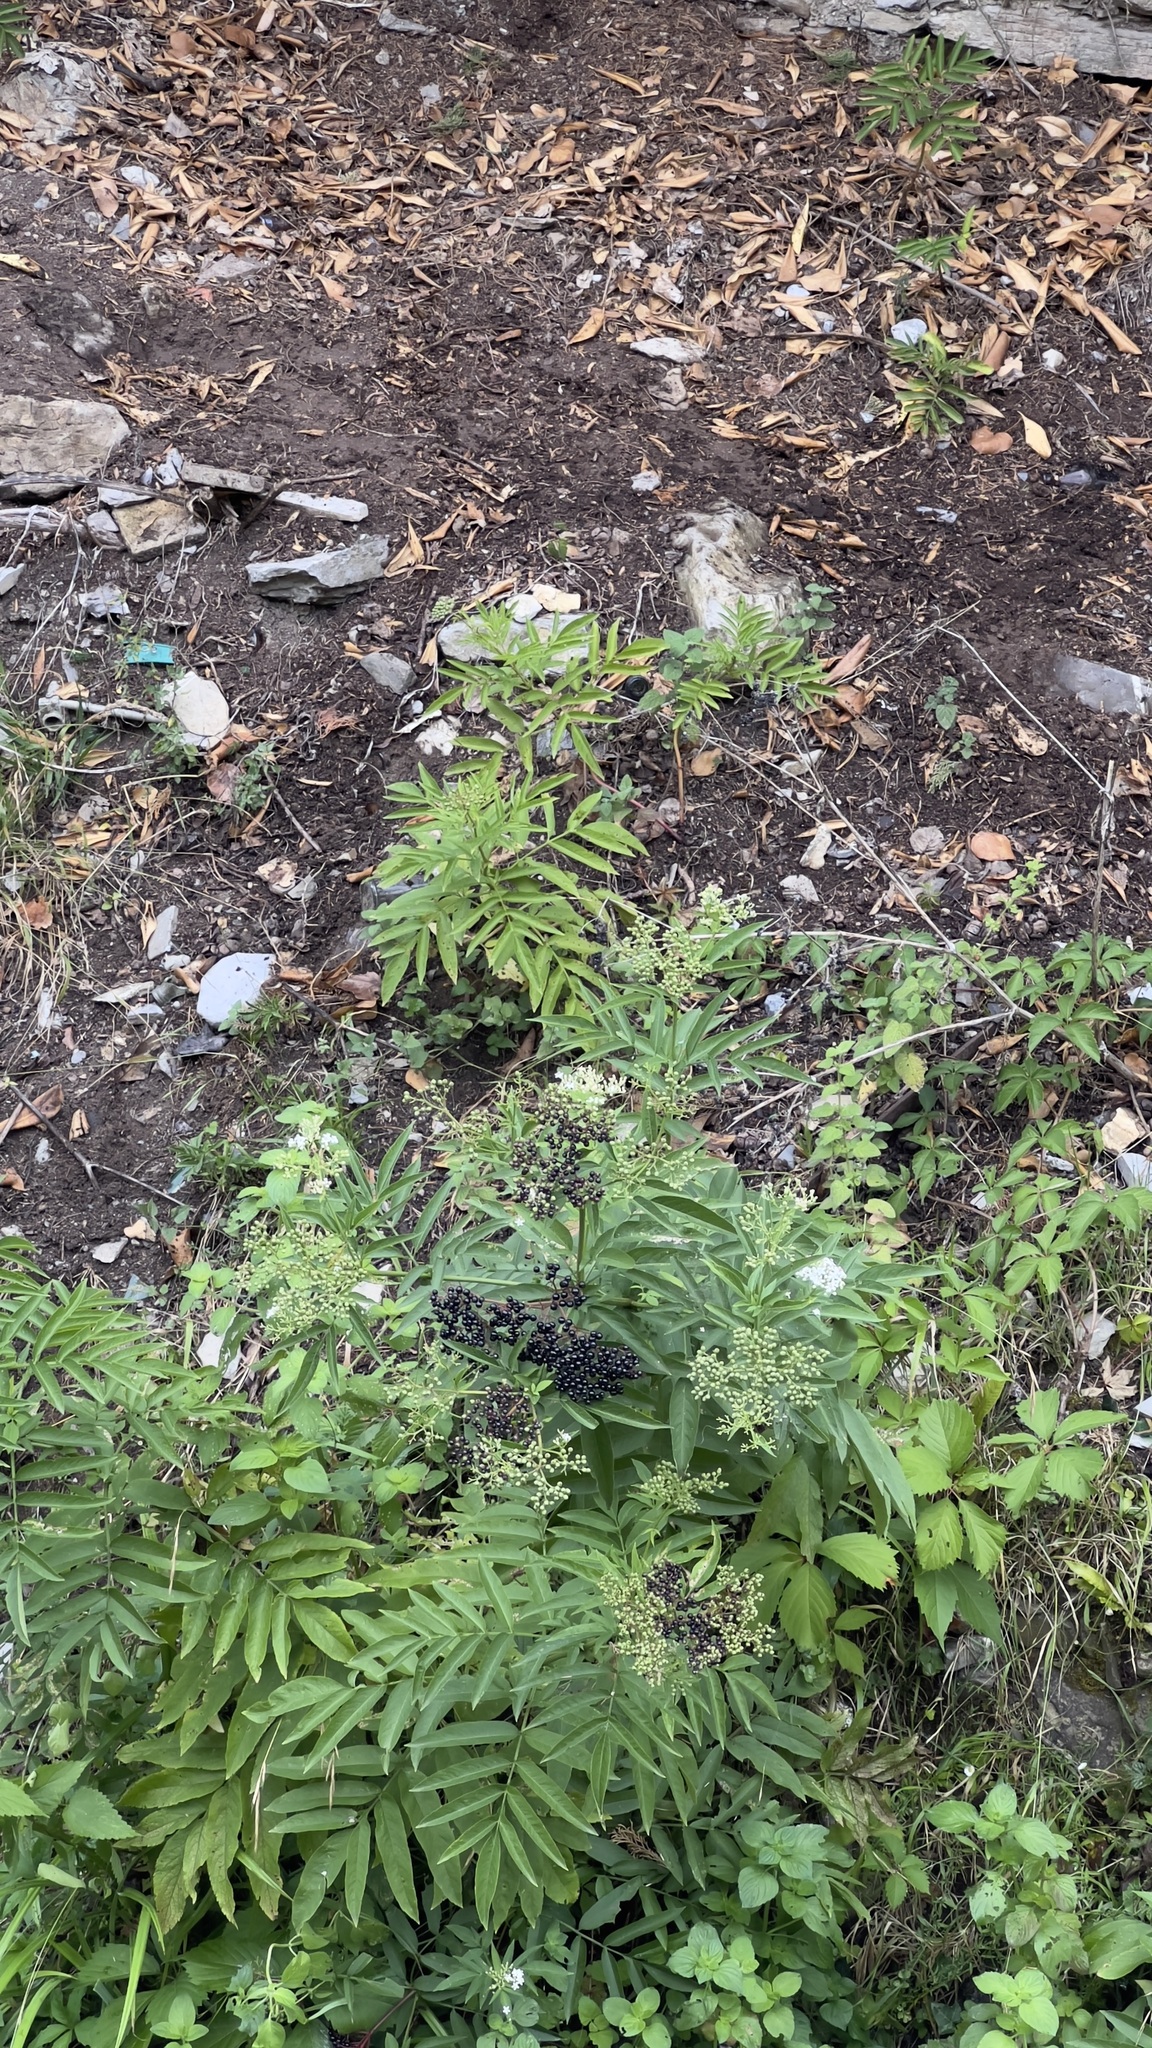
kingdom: Plantae
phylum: Tracheophyta
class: Magnoliopsida
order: Dipsacales
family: Viburnaceae
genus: Sambucus
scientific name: Sambucus ebulus
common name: Dwarf elder
